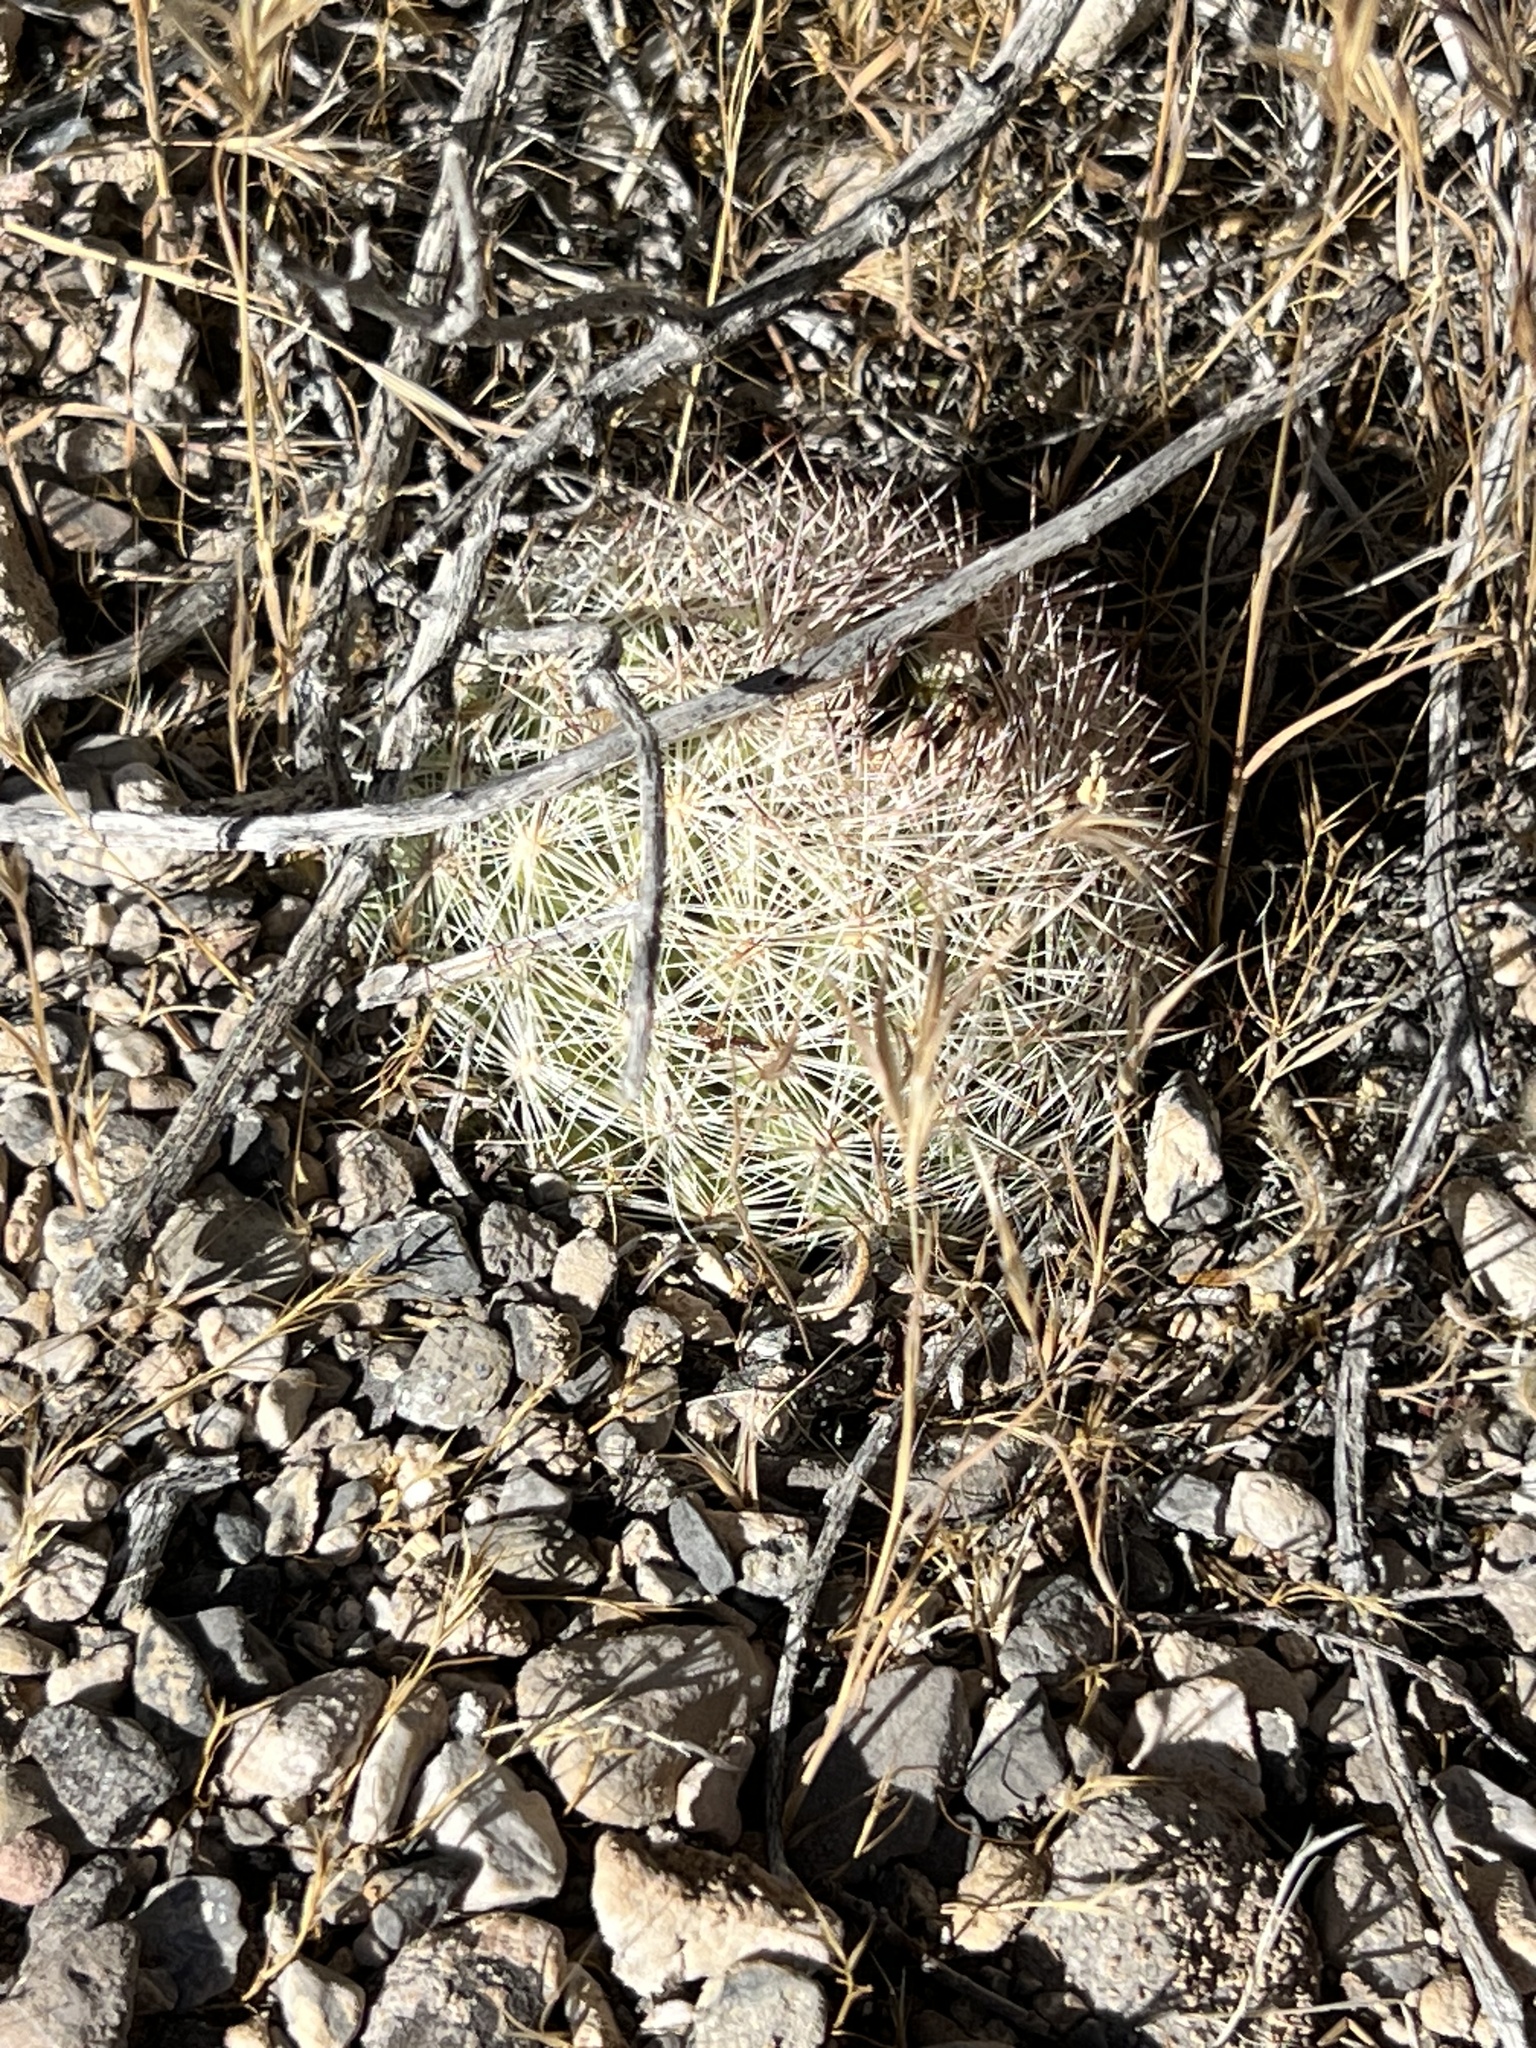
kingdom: Plantae
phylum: Tracheophyta
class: Magnoliopsida
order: Caryophyllales
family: Cactaceae
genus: Pelecyphora
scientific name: Pelecyphora dasyacantha
